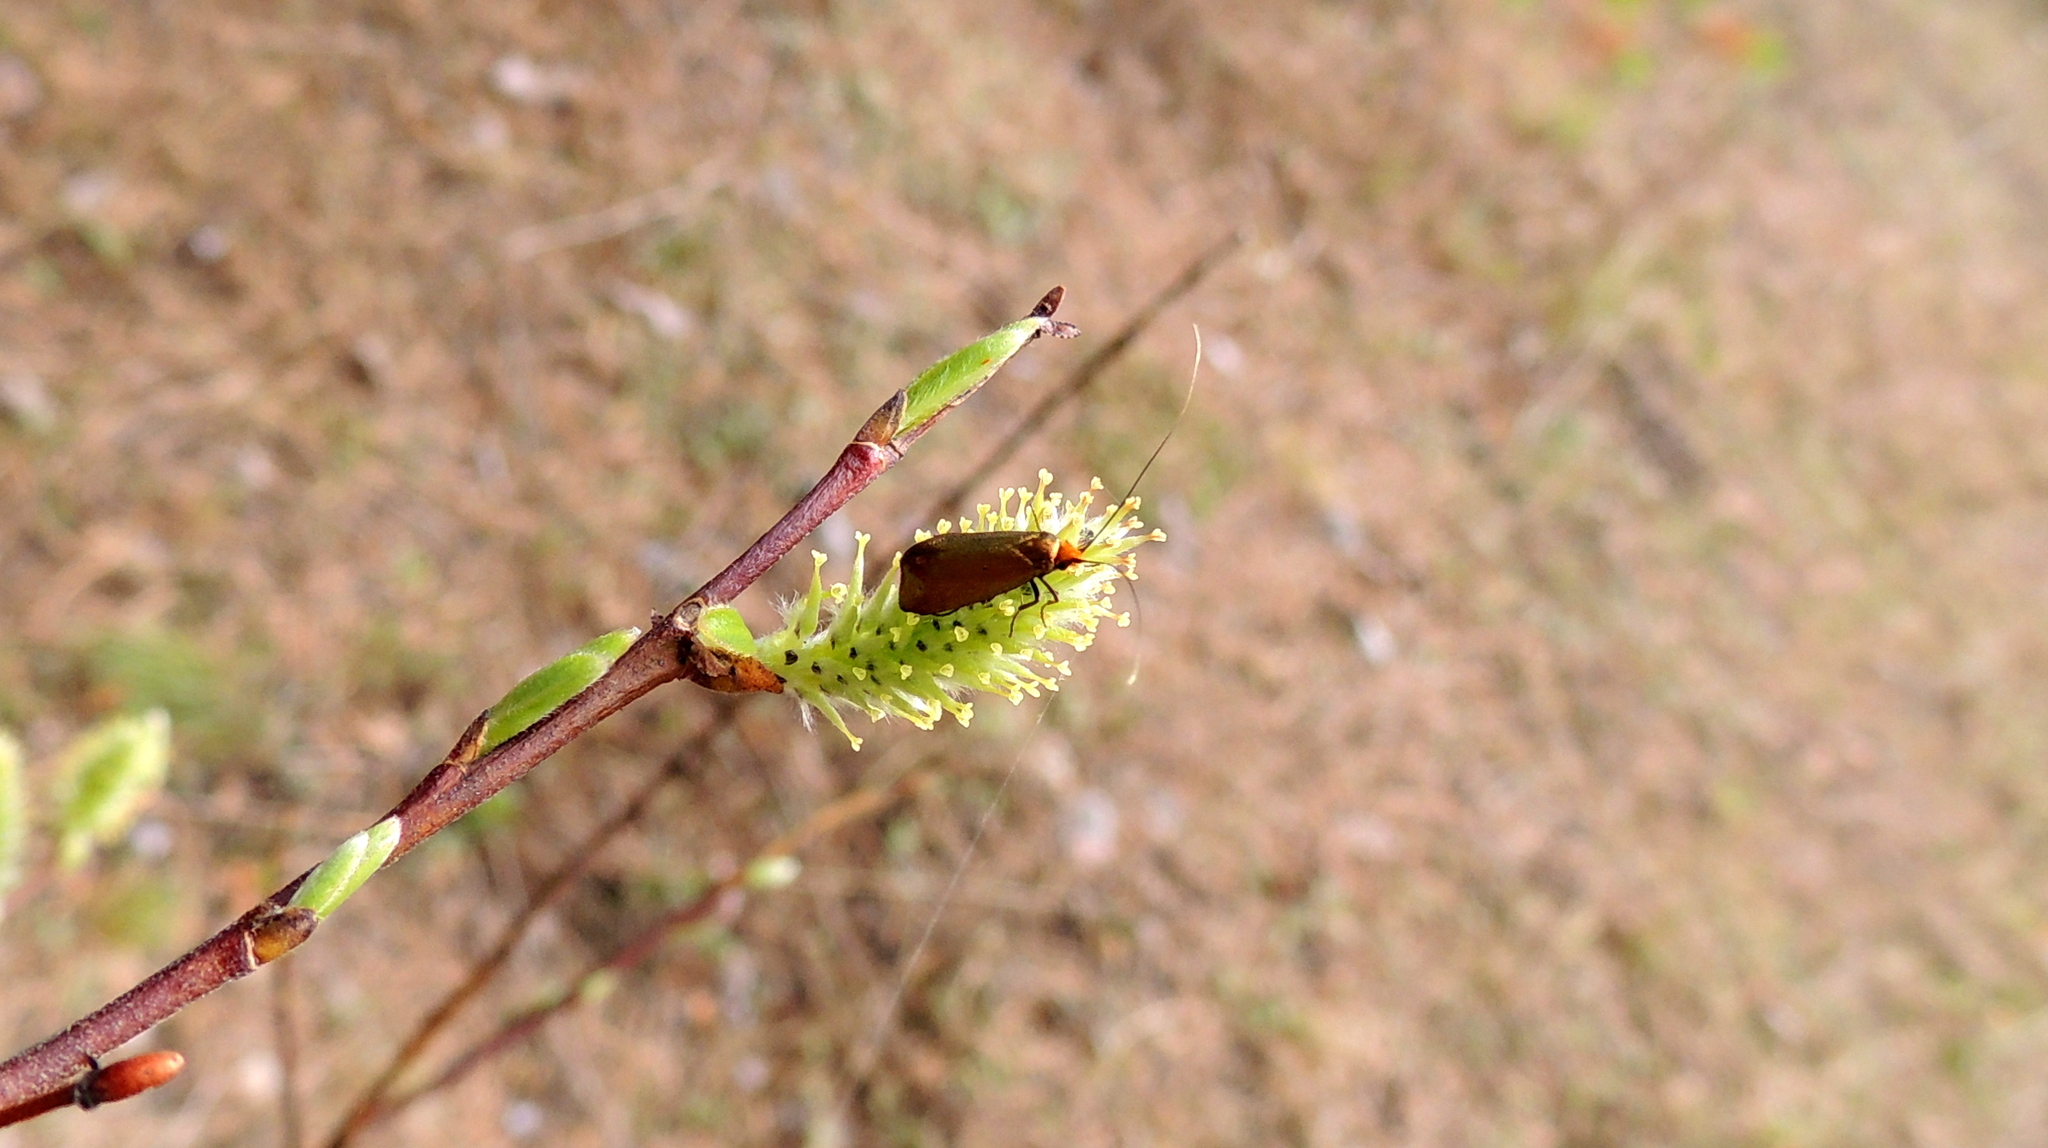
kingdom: Animalia
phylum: Arthropoda
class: Insecta
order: Lepidoptera
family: Adelidae
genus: Adela
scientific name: Adela cuprella
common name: Early long-horn
